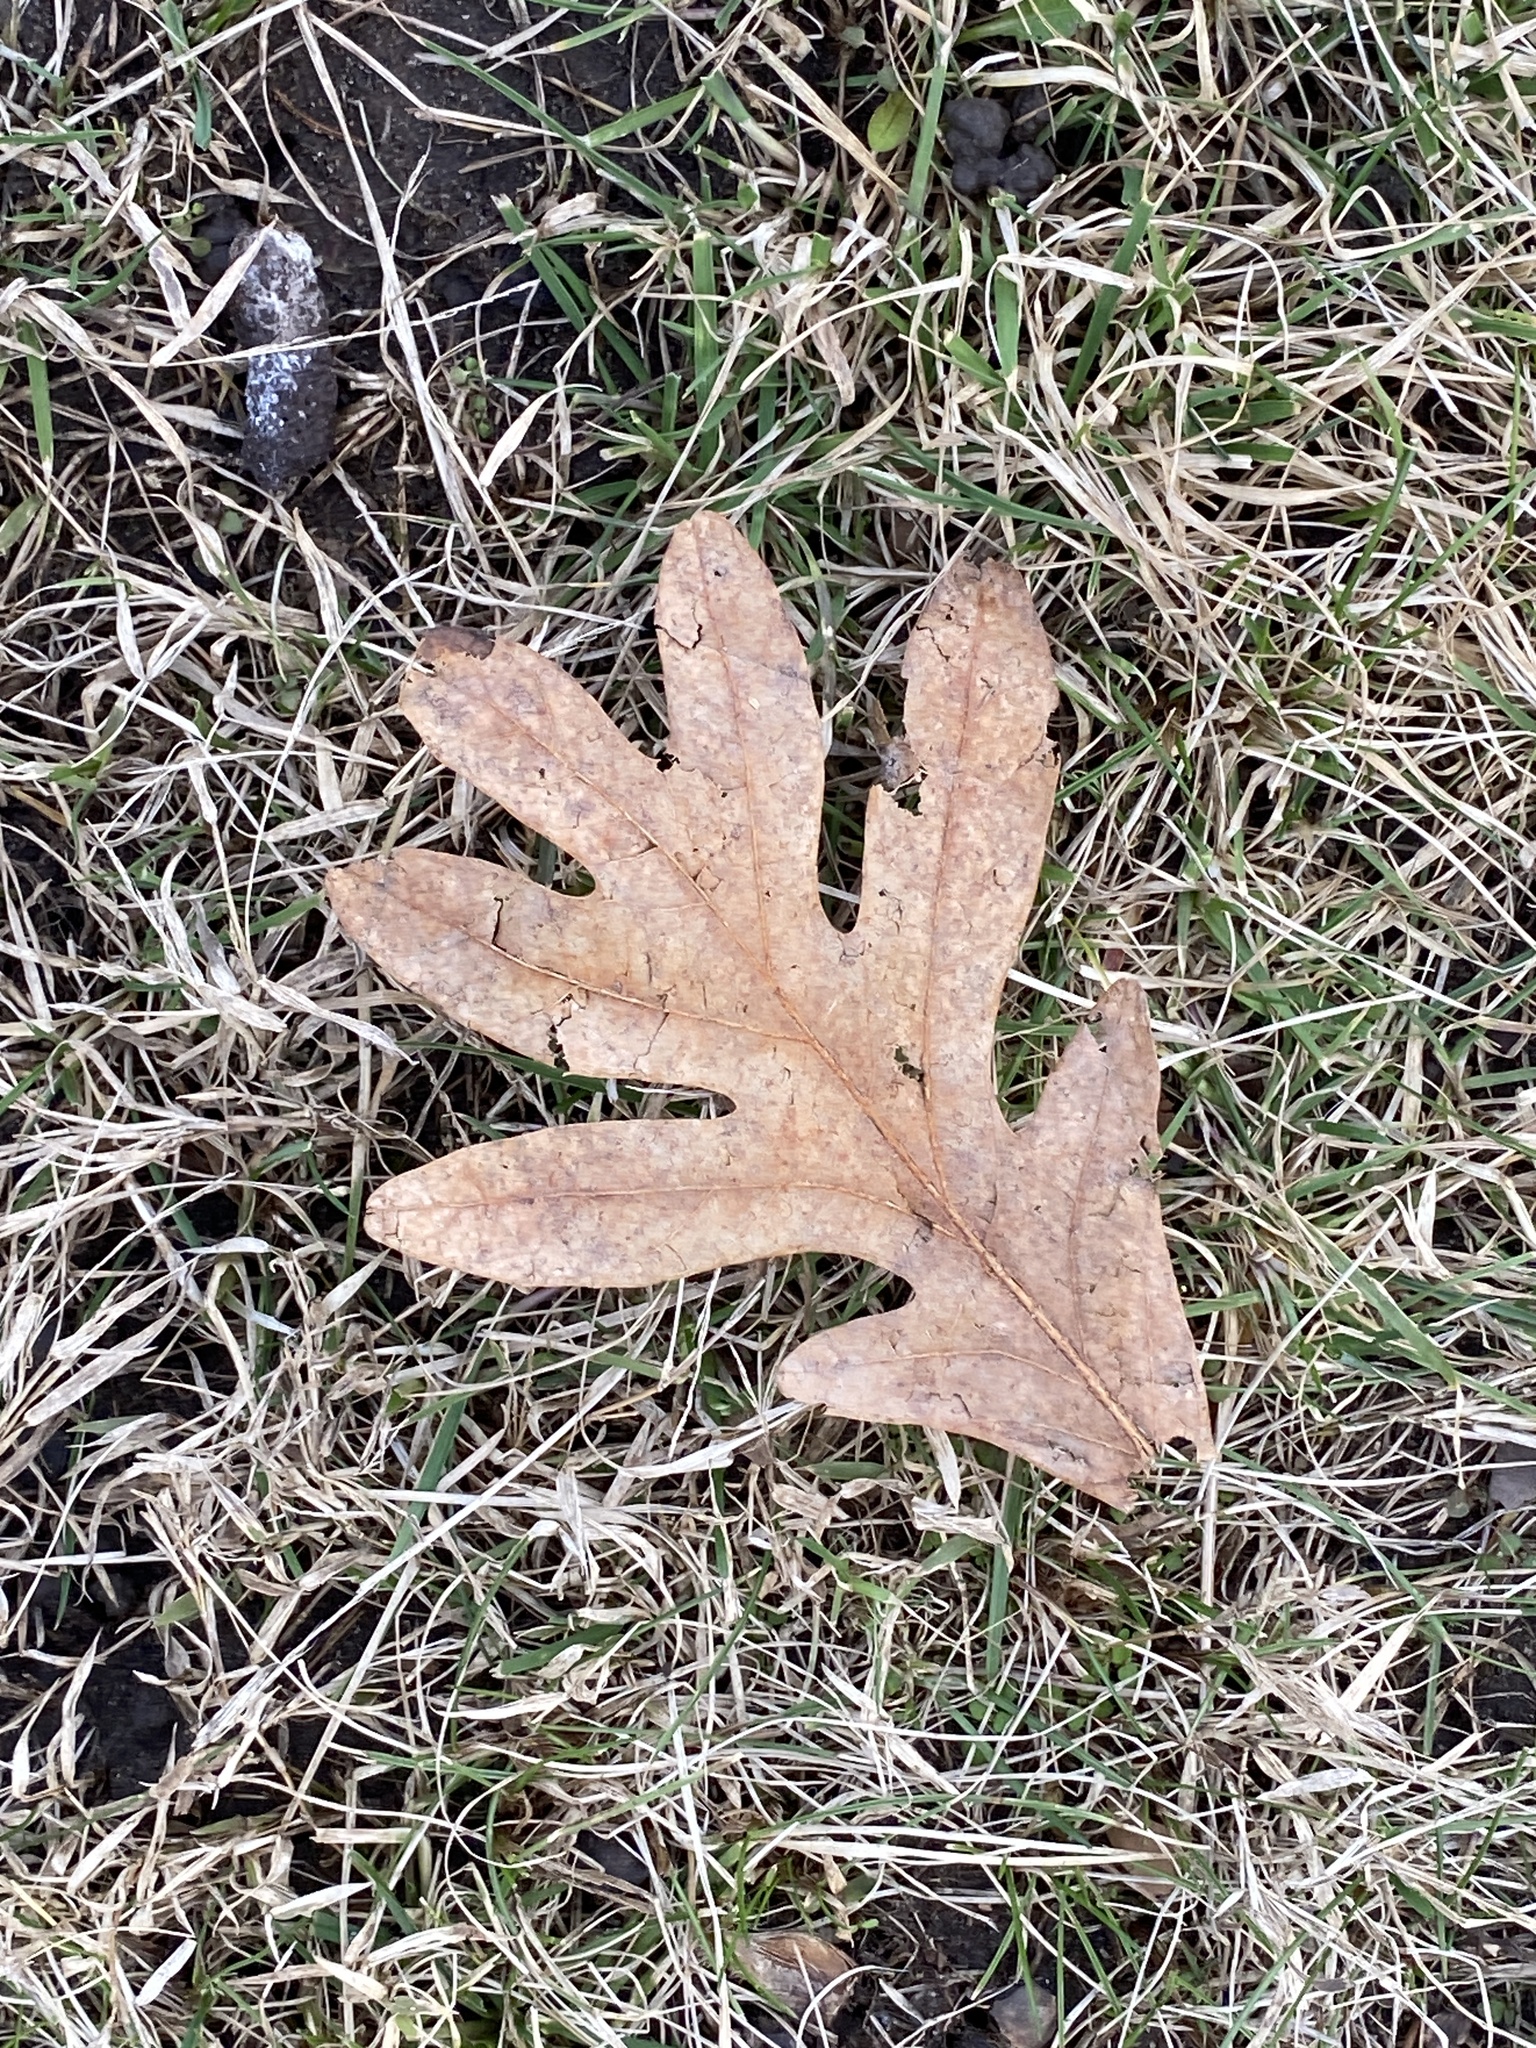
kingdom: Plantae
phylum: Tracheophyta
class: Magnoliopsida
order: Fagales
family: Fagaceae
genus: Quercus
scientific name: Quercus alba
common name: White oak
